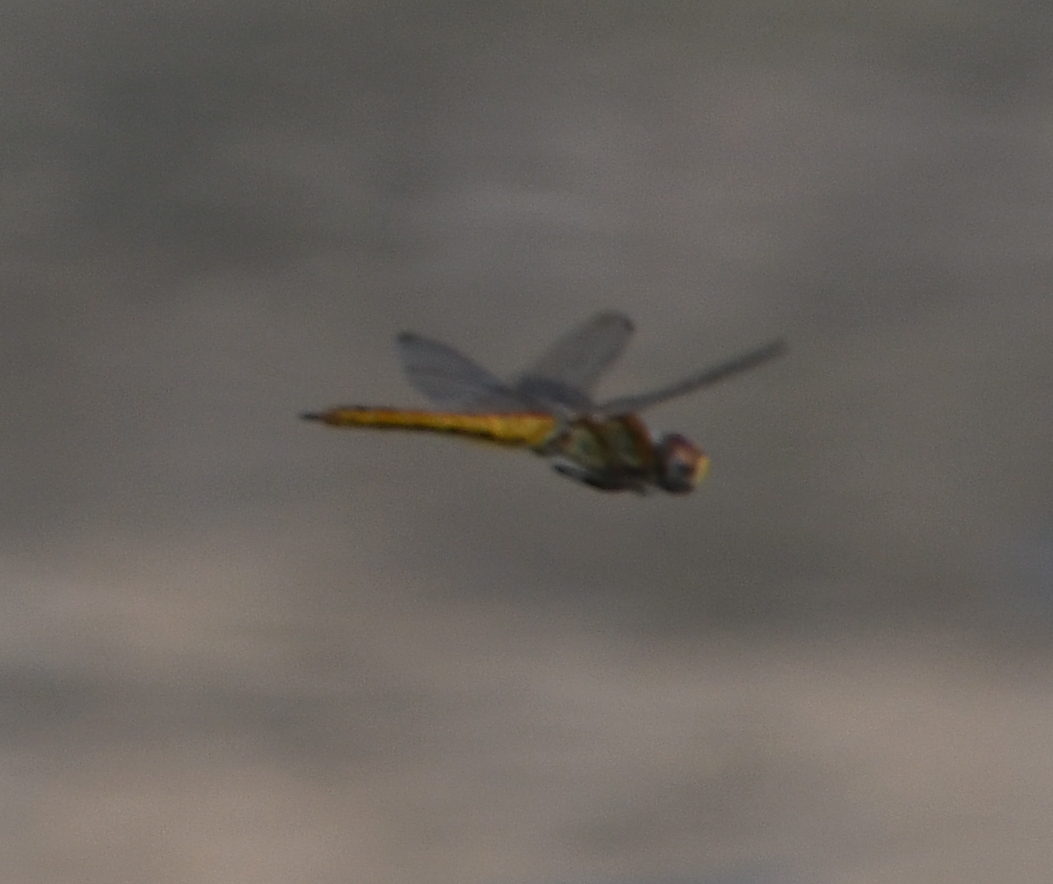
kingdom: Animalia
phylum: Arthropoda
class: Insecta
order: Odonata
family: Libellulidae
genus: Pantala
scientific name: Pantala flavescens
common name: Wandering glider
